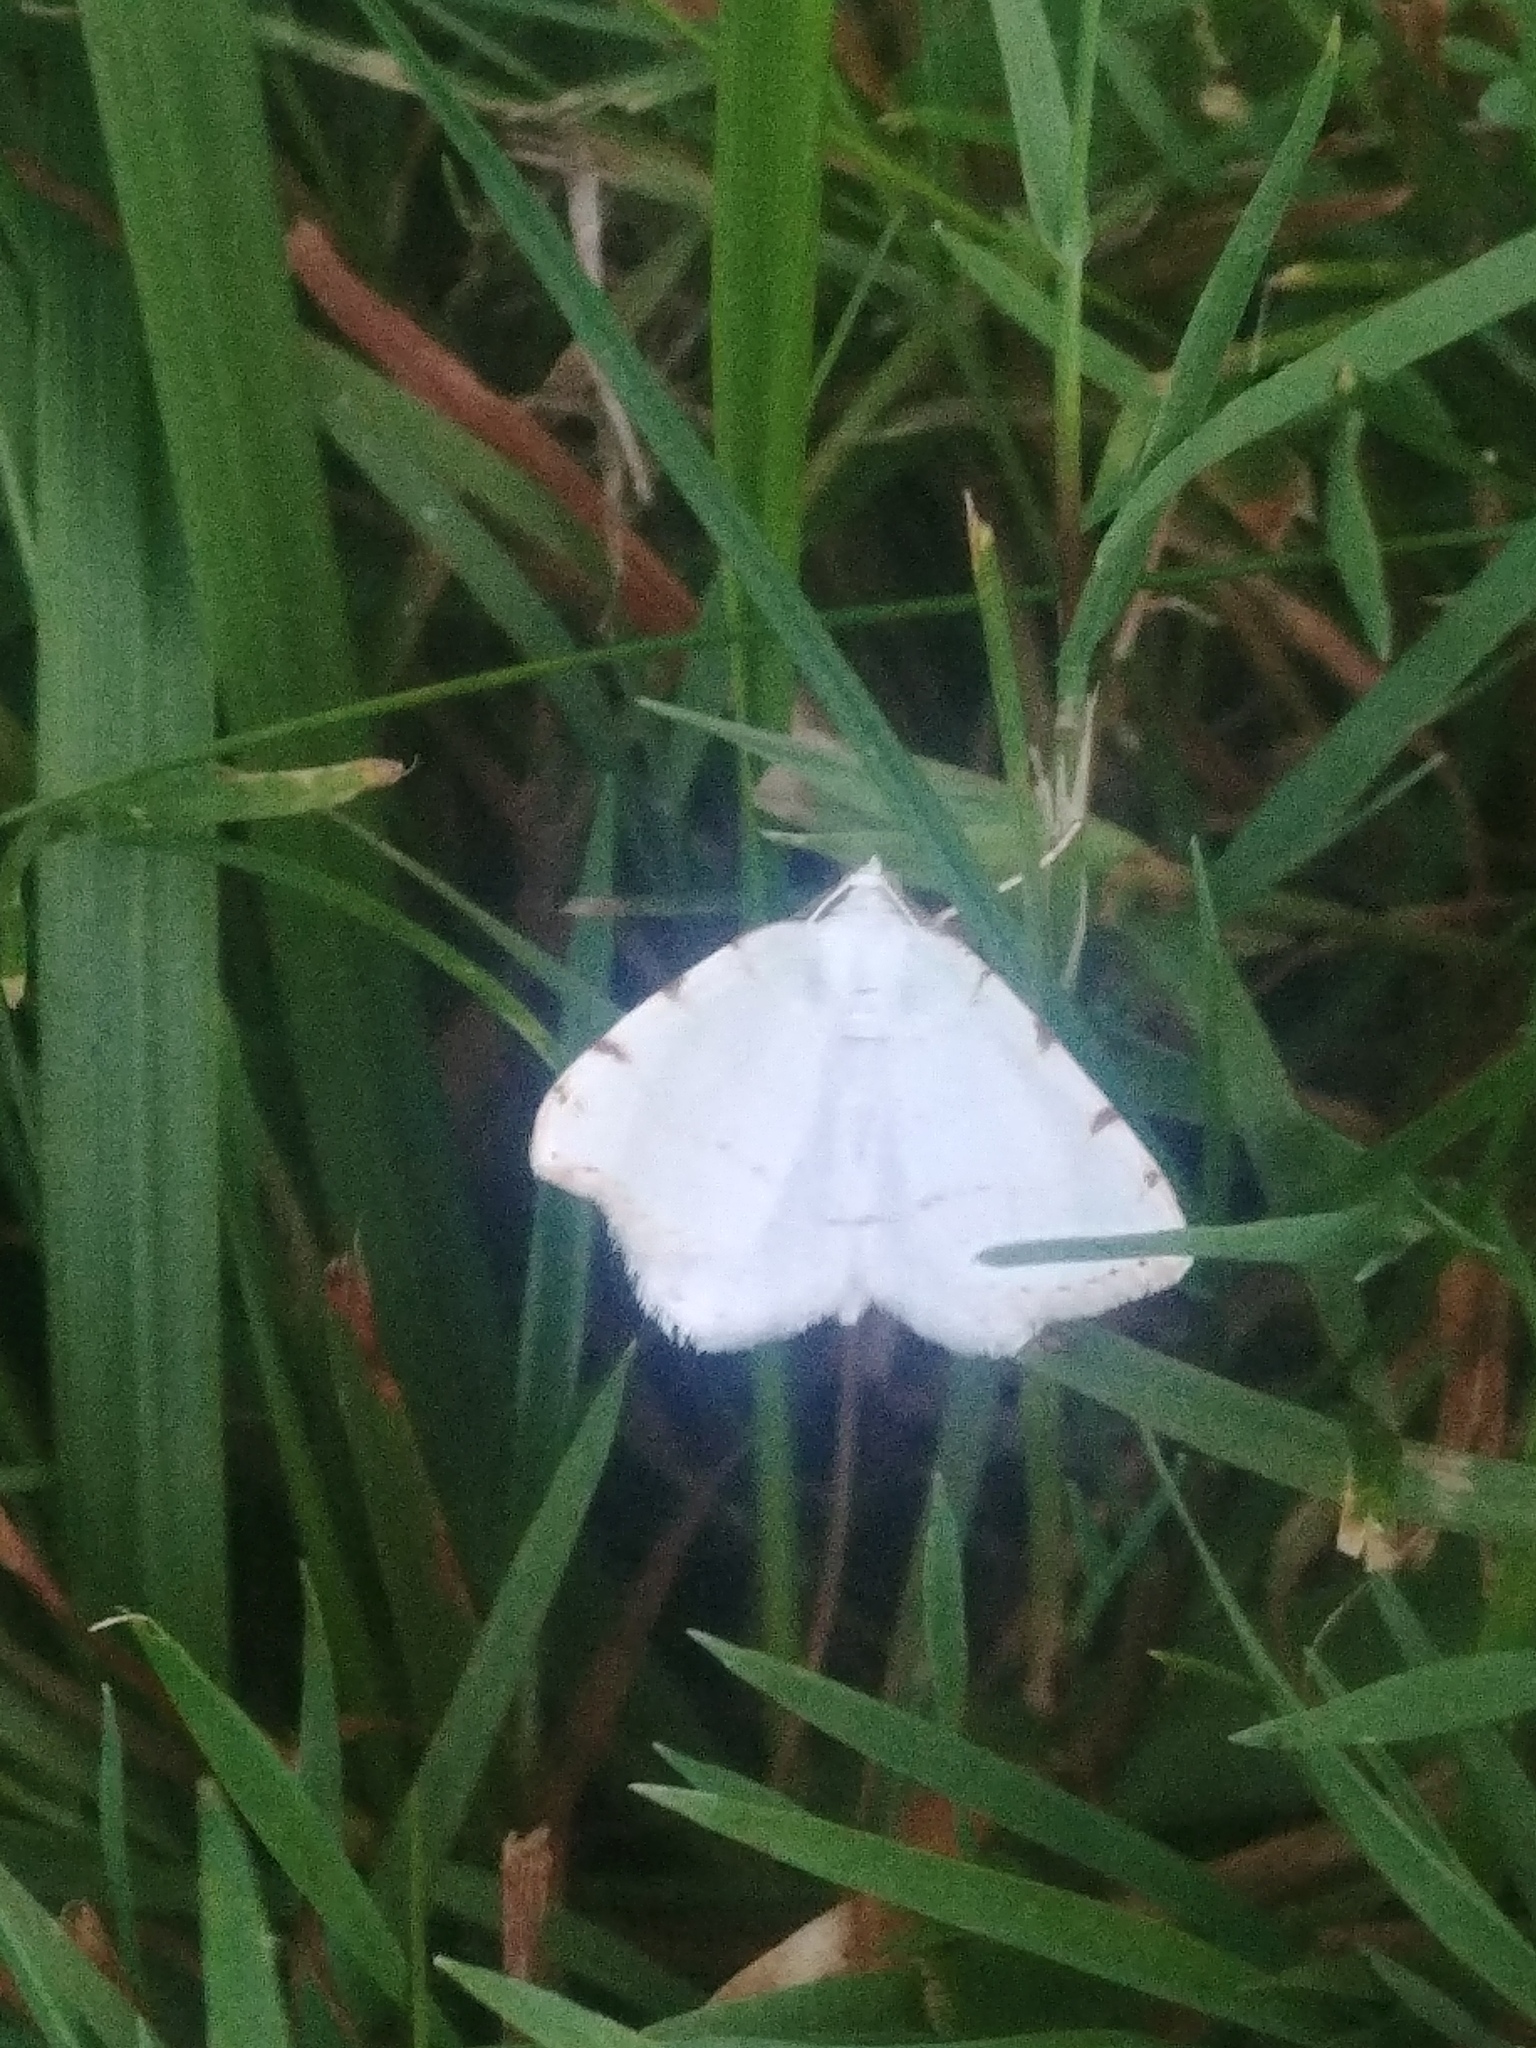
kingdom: Animalia
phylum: Arthropoda
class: Insecta
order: Lepidoptera
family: Geometridae
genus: Macaria
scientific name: Macaria pustularia
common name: Lesser maple spanworm moth
